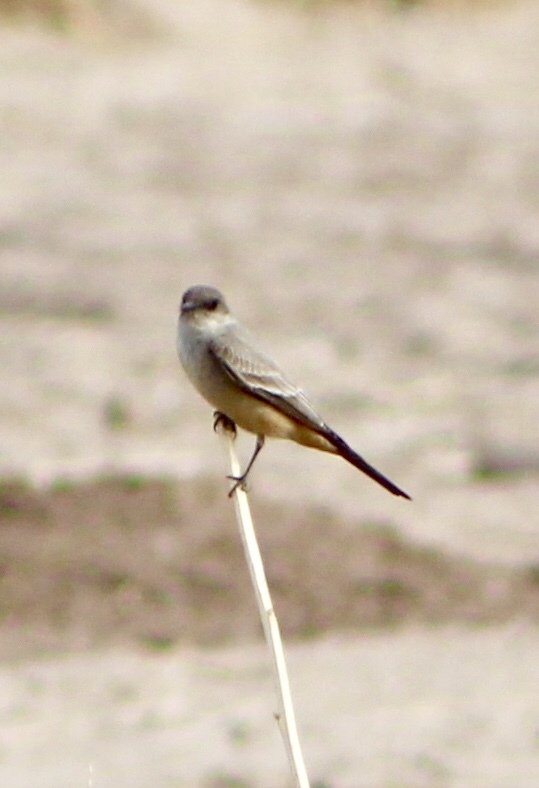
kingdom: Animalia
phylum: Chordata
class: Aves
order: Passeriformes
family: Tyrannidae
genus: Sayornis
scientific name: Sayornis saya
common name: Say's phoebe
